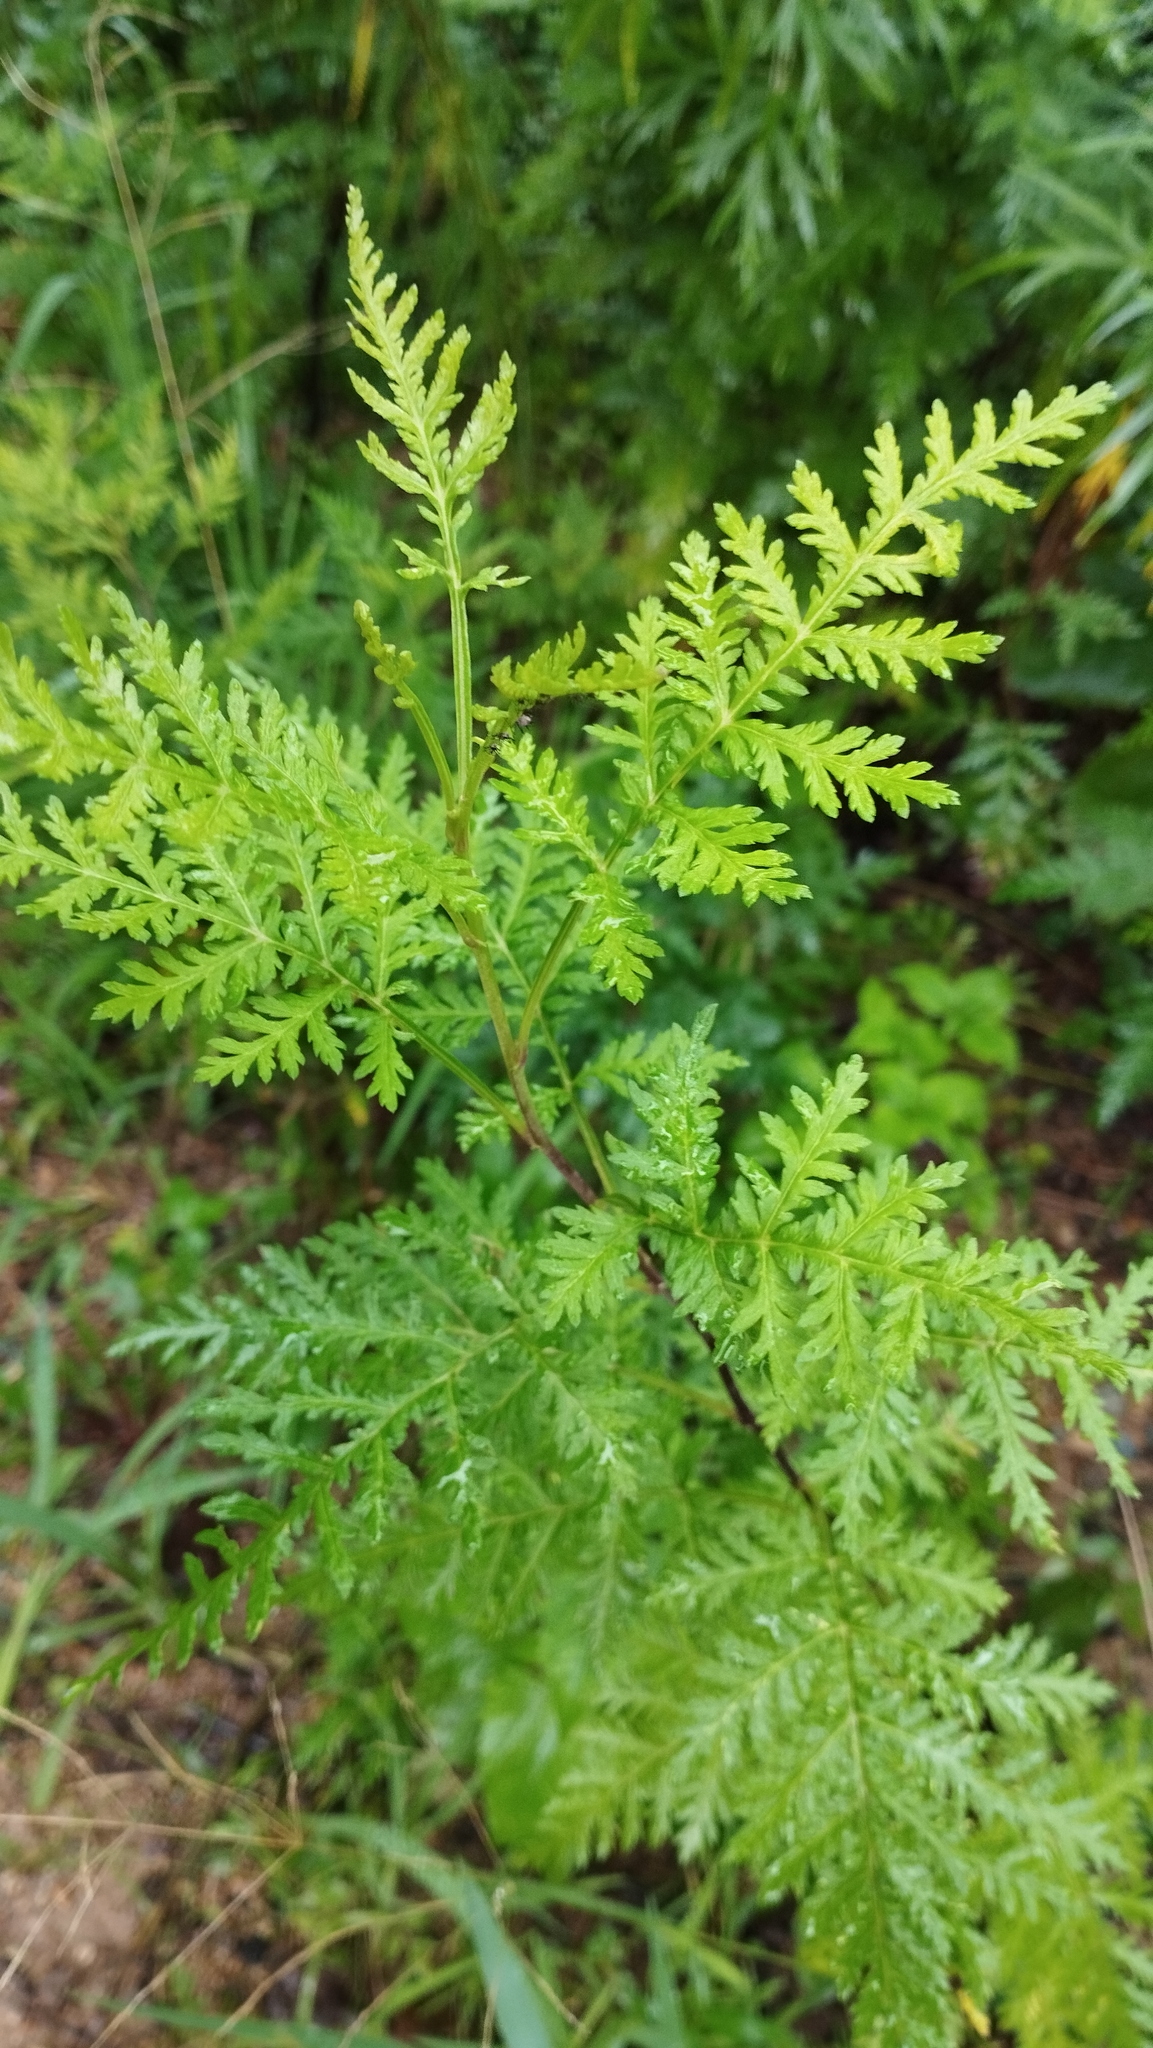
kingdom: Plantae
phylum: Tracheophyta
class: Magnoliopsida
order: Asterales
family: Asteraceae
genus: Artemisia
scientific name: Artemisia gmelinii
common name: Gmelin's wormwood
